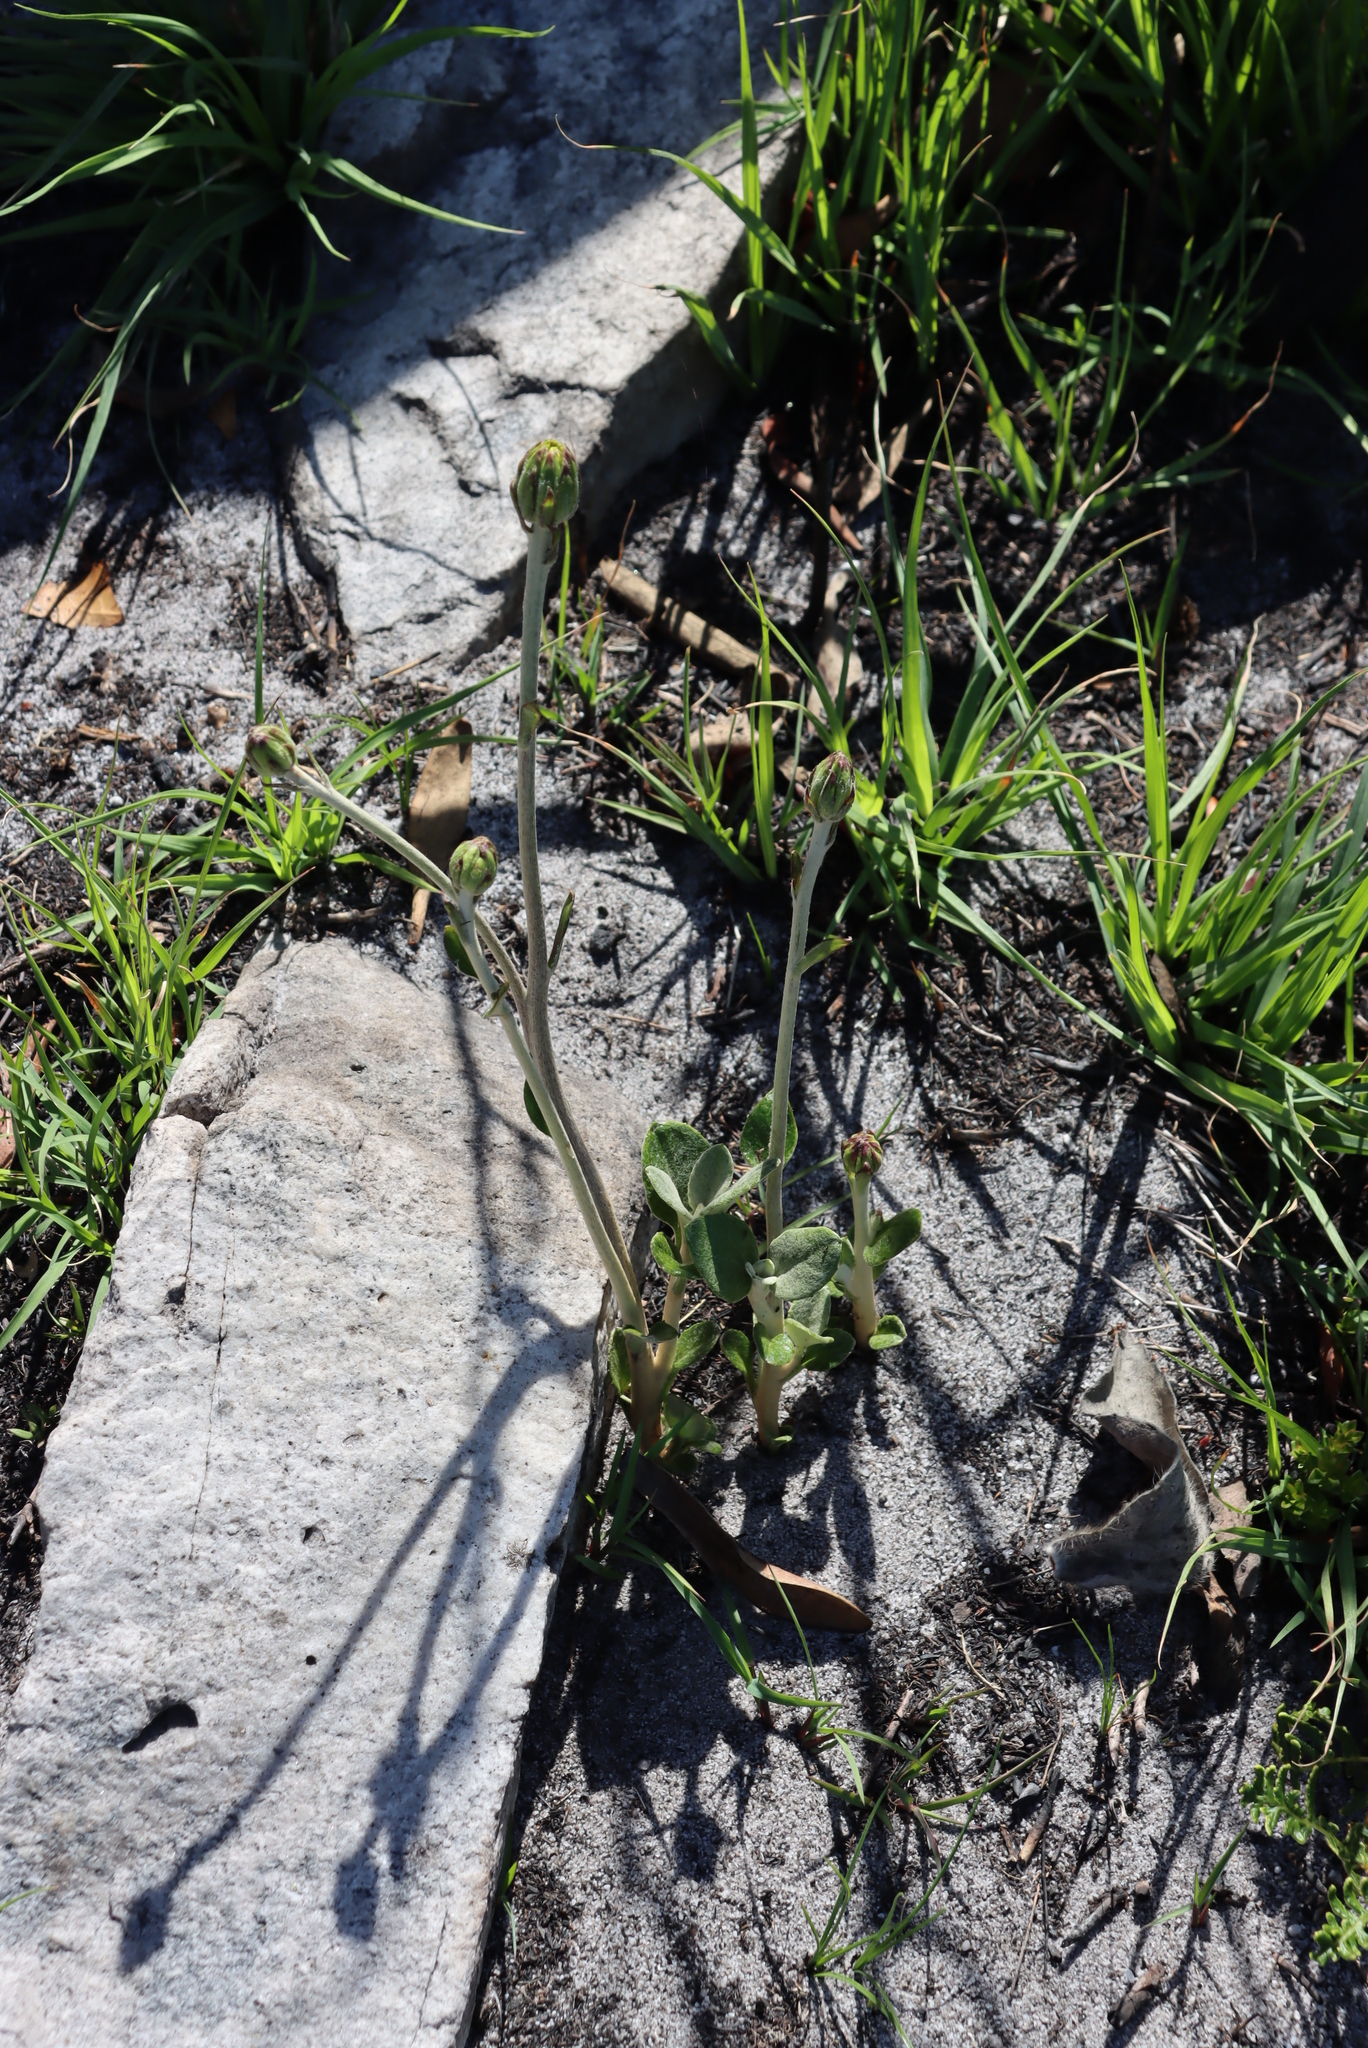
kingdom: Plantae
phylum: Tracheophyta
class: Magnoliopsida
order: Asterales
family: Asteraceae
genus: Capelio
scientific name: Capelio tabularis
